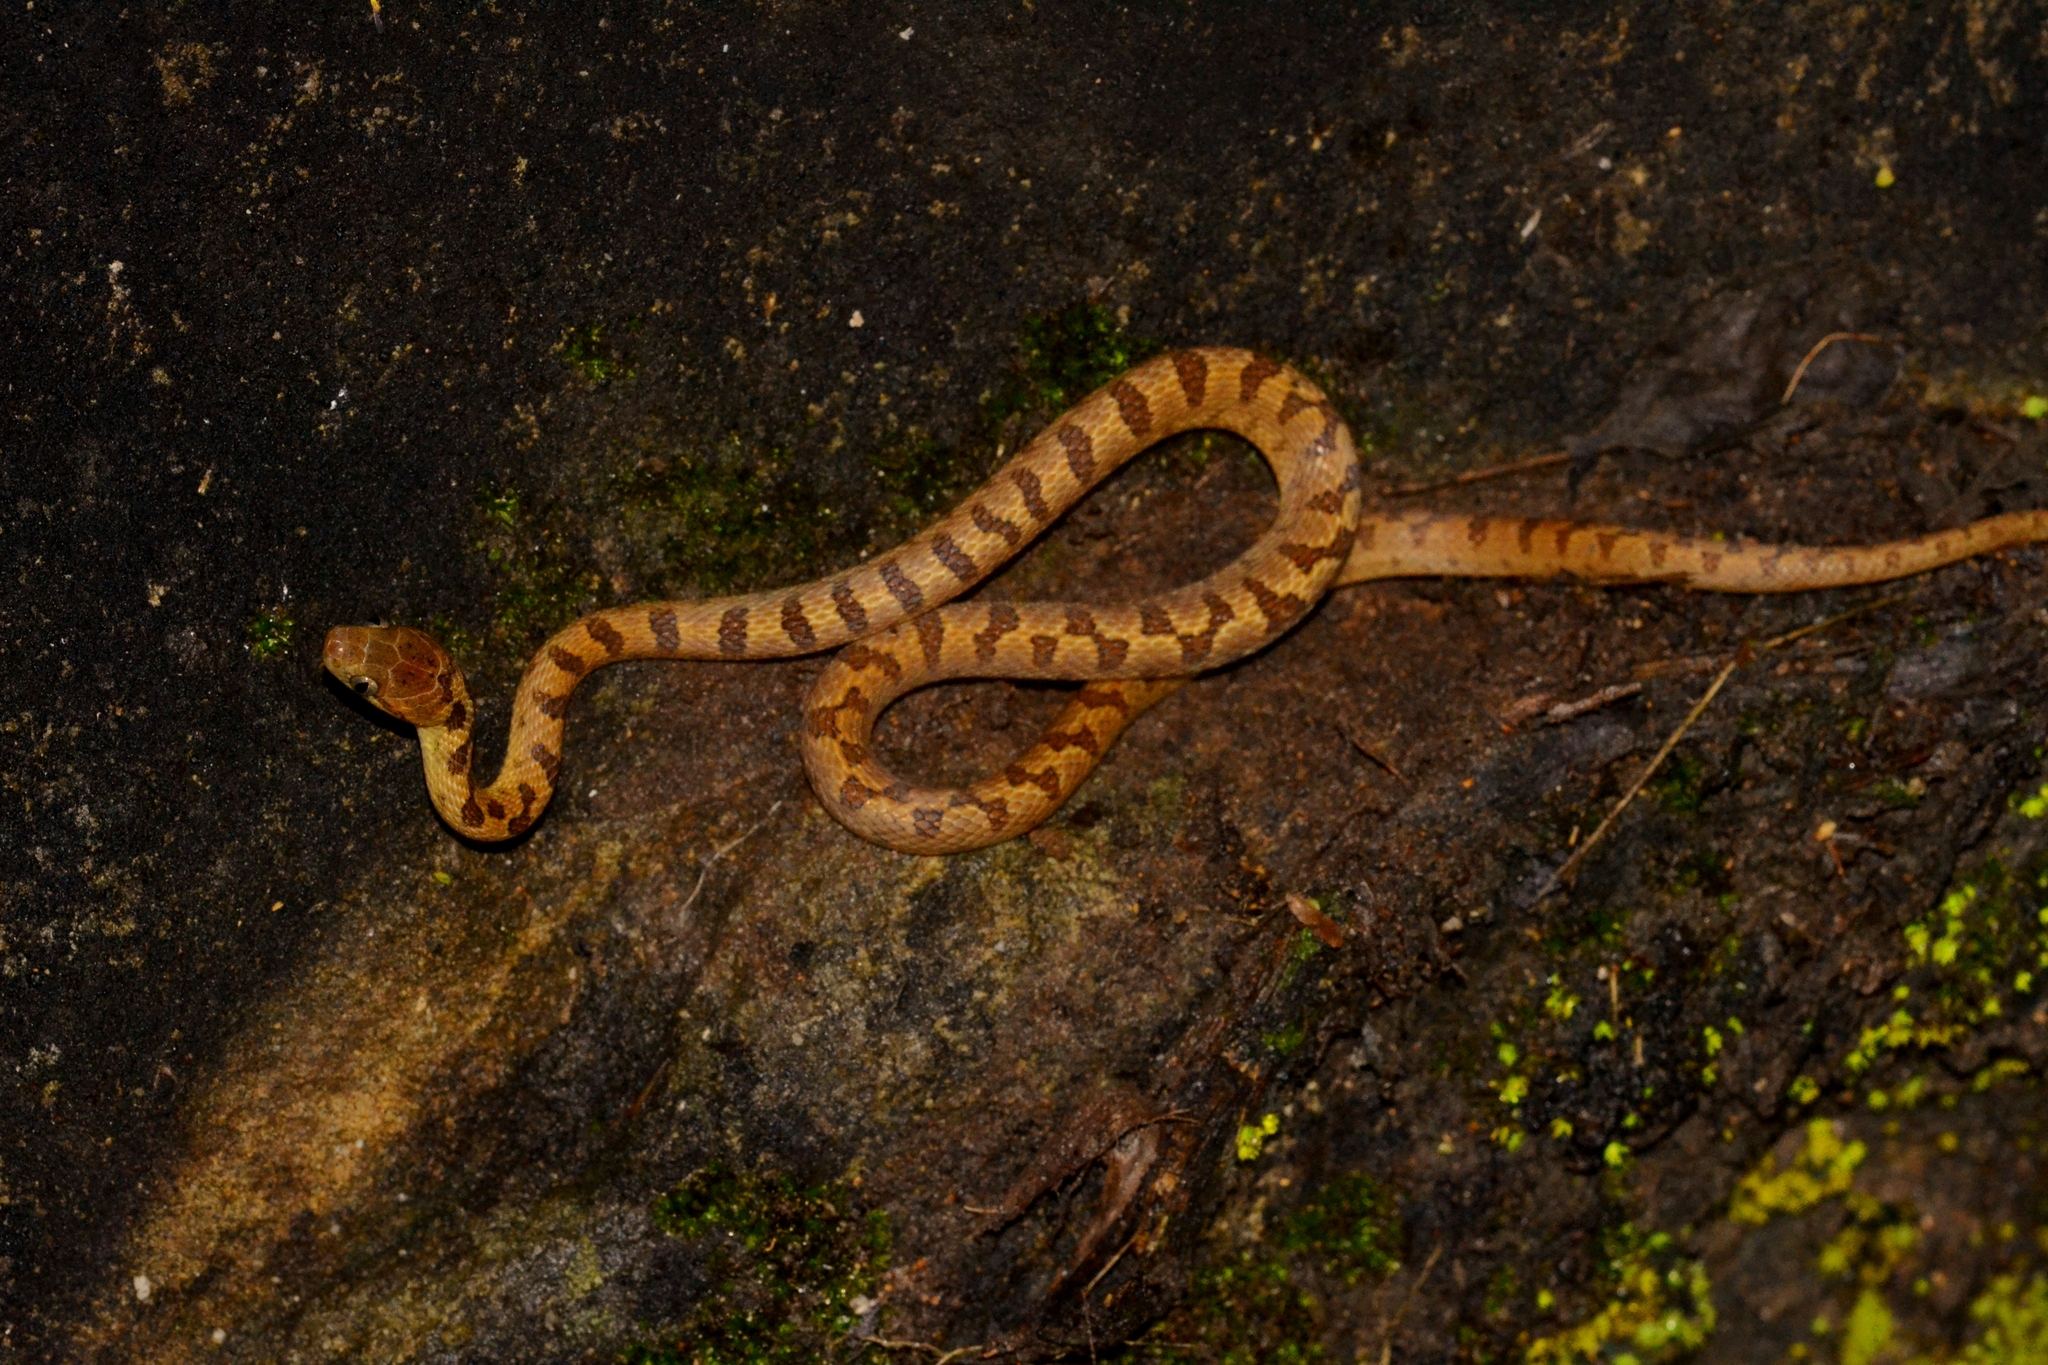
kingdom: Animalia
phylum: Chordata
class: Squamata
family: Colubridae
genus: Leptodeira
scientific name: Leptodeira septentrionalis
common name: Northern cat-eyed snake
